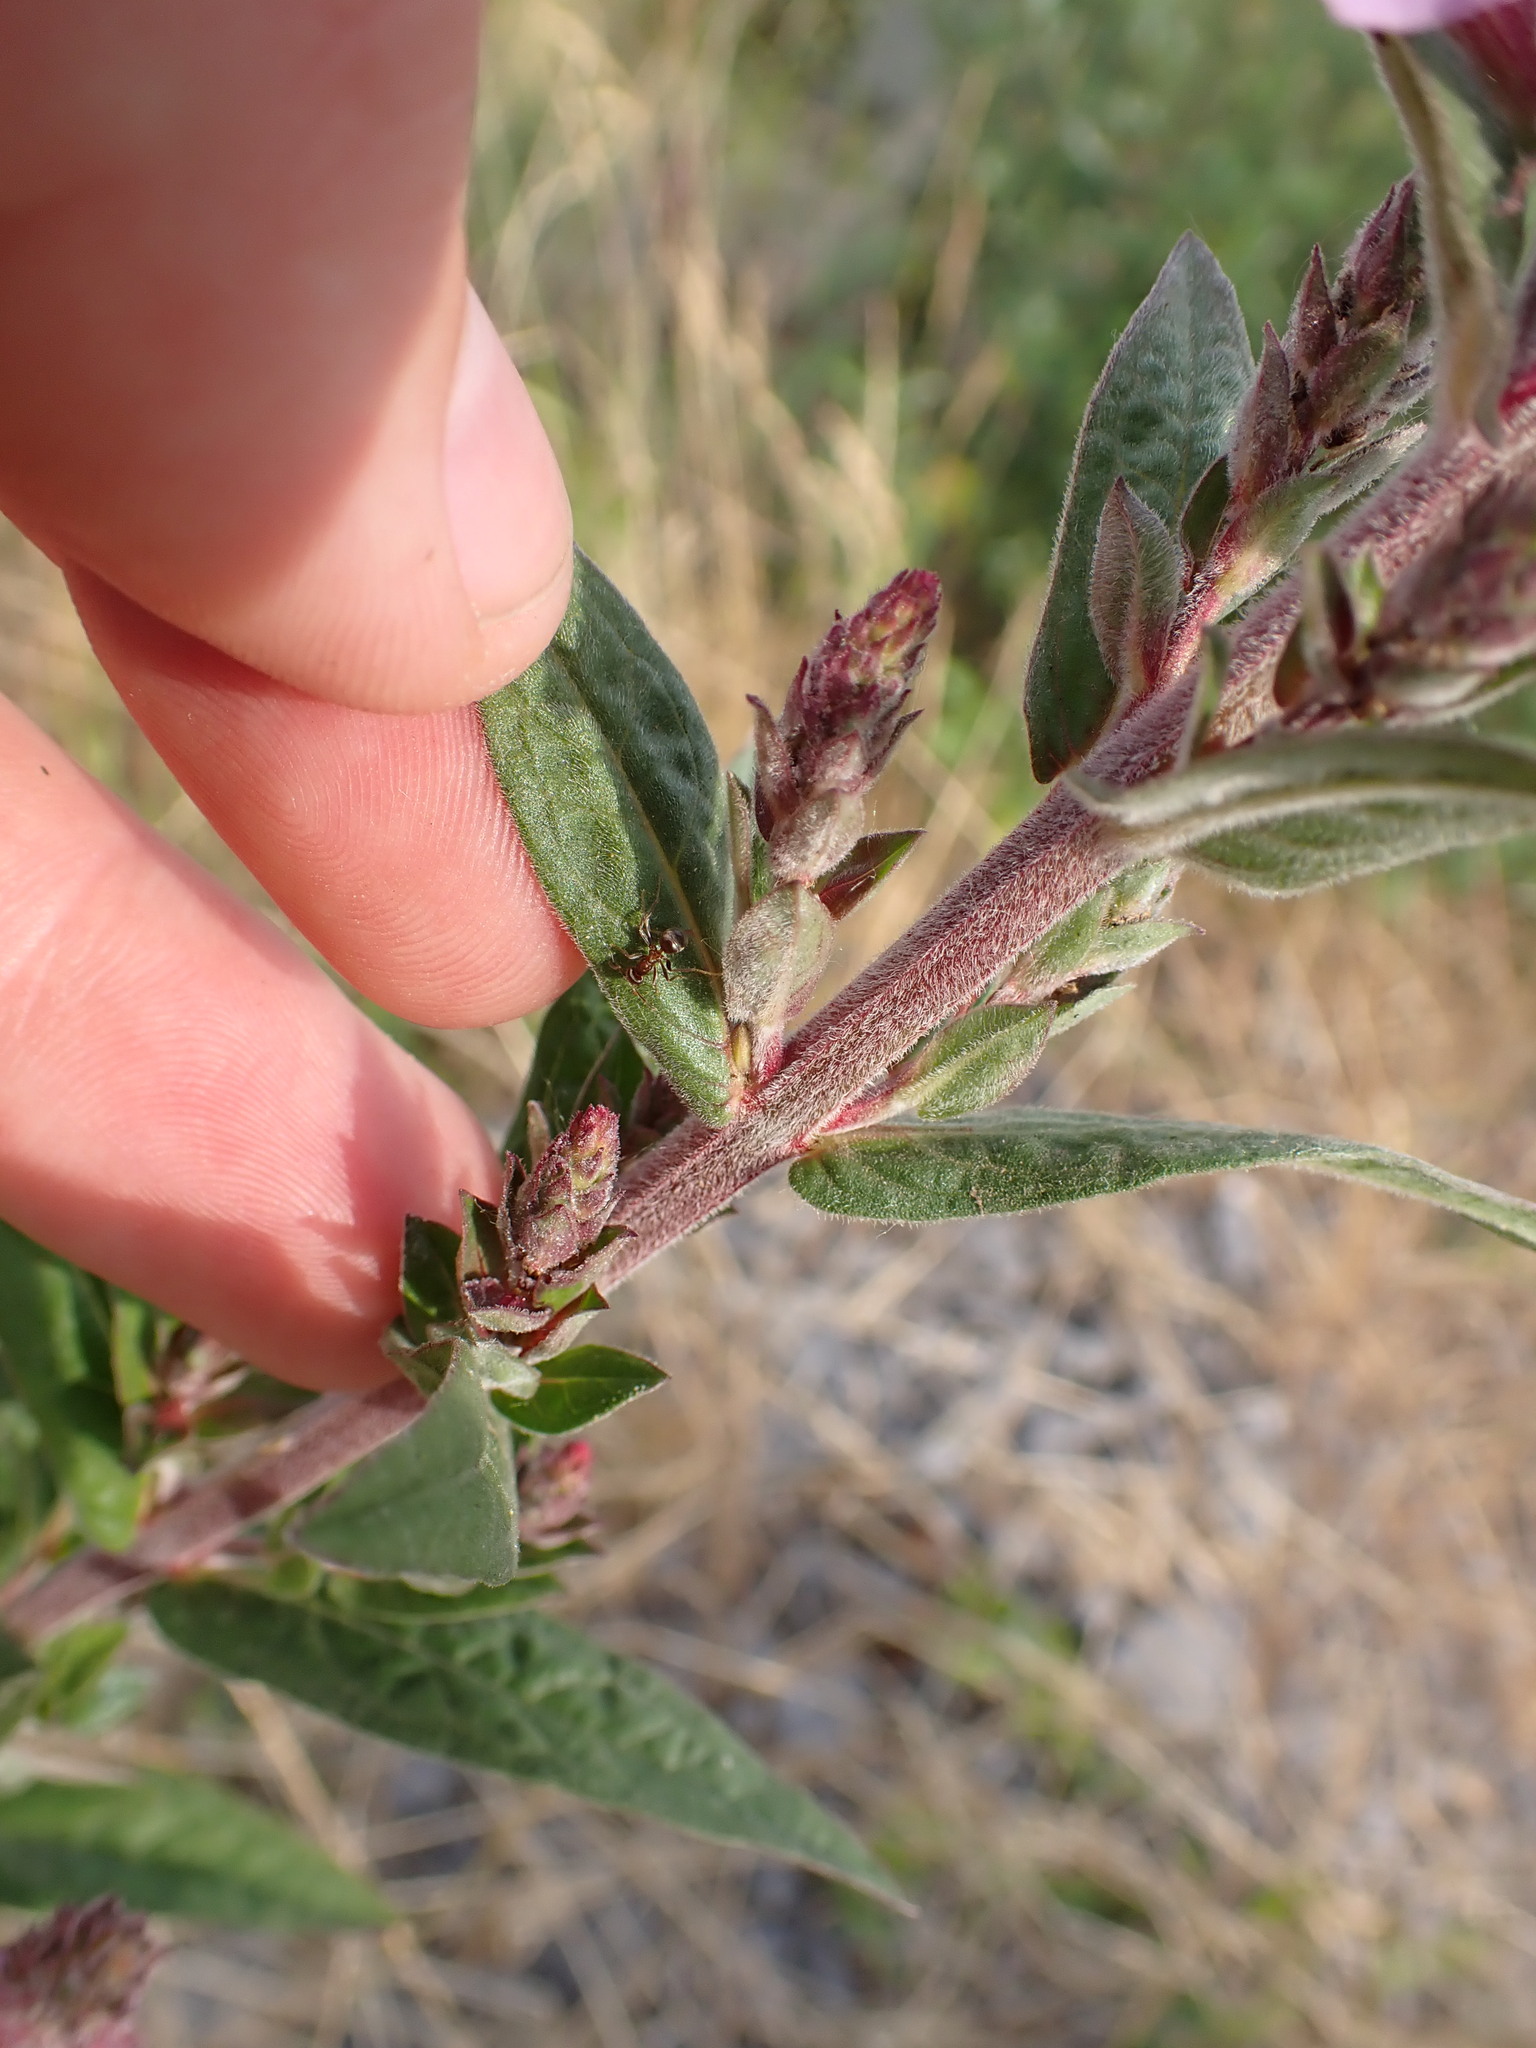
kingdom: Plantae
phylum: Tracheophyta
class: Magnoliopsida
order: Myrtales
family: Lythraceae
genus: Lythrum
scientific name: Lythrum salicaria
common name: Purple loosestrife
